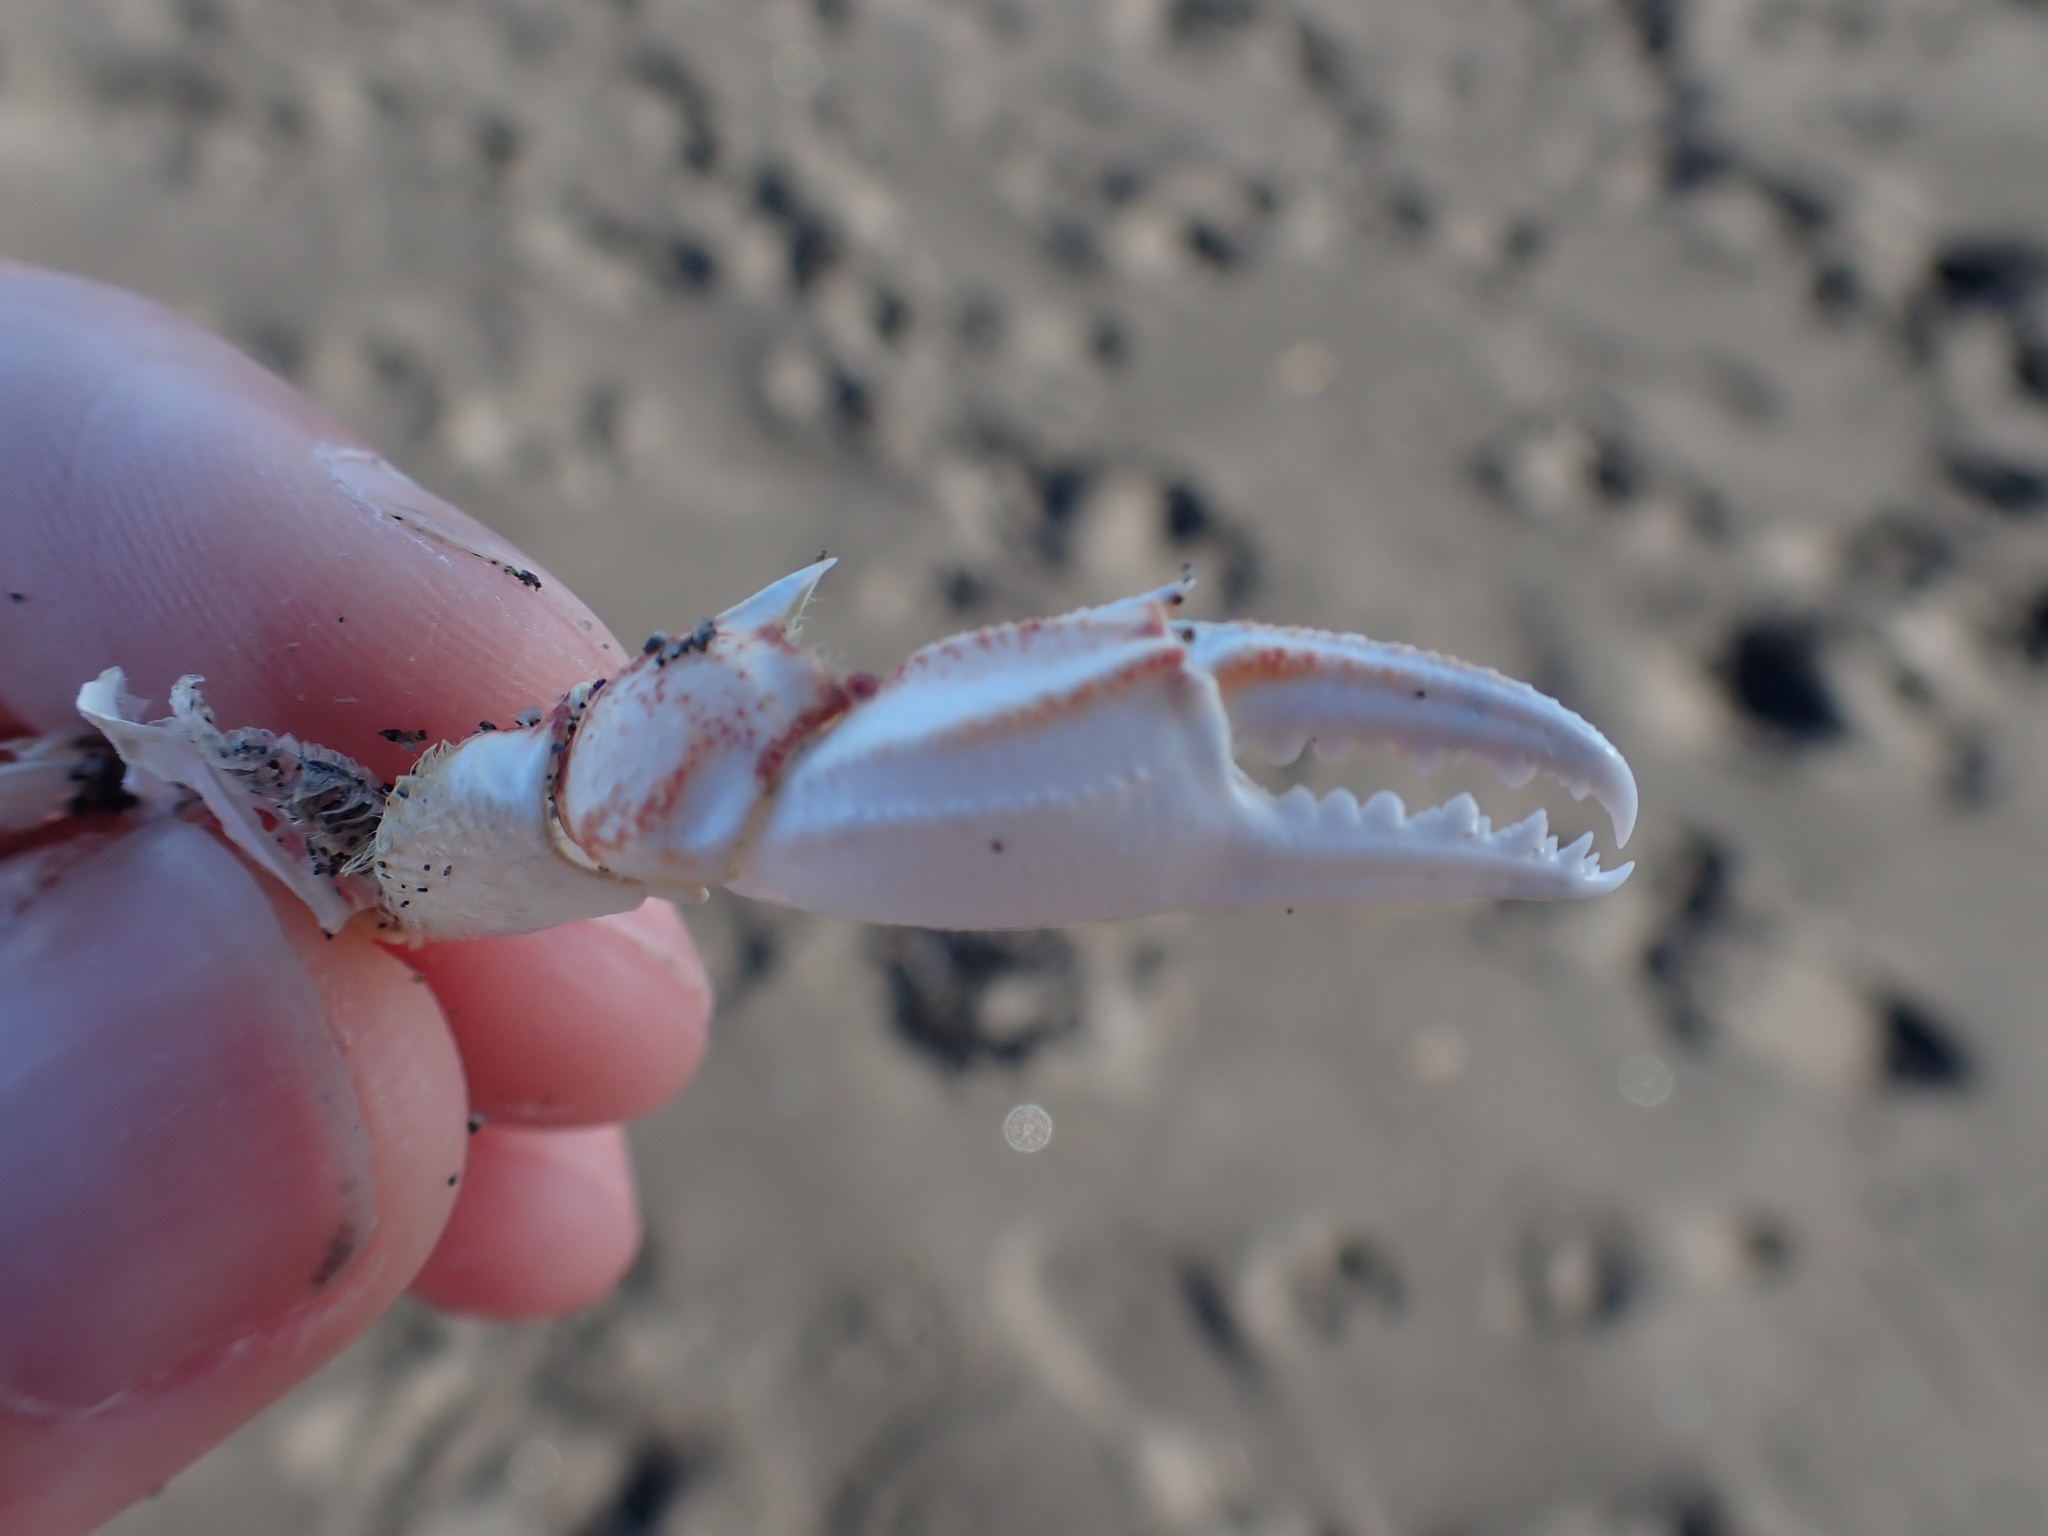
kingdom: Animalia
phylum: Arthropoda
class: Malacostraca
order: Decapoda
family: Ovalipidae
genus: Ovalipes
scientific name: Ovalipes catharus
